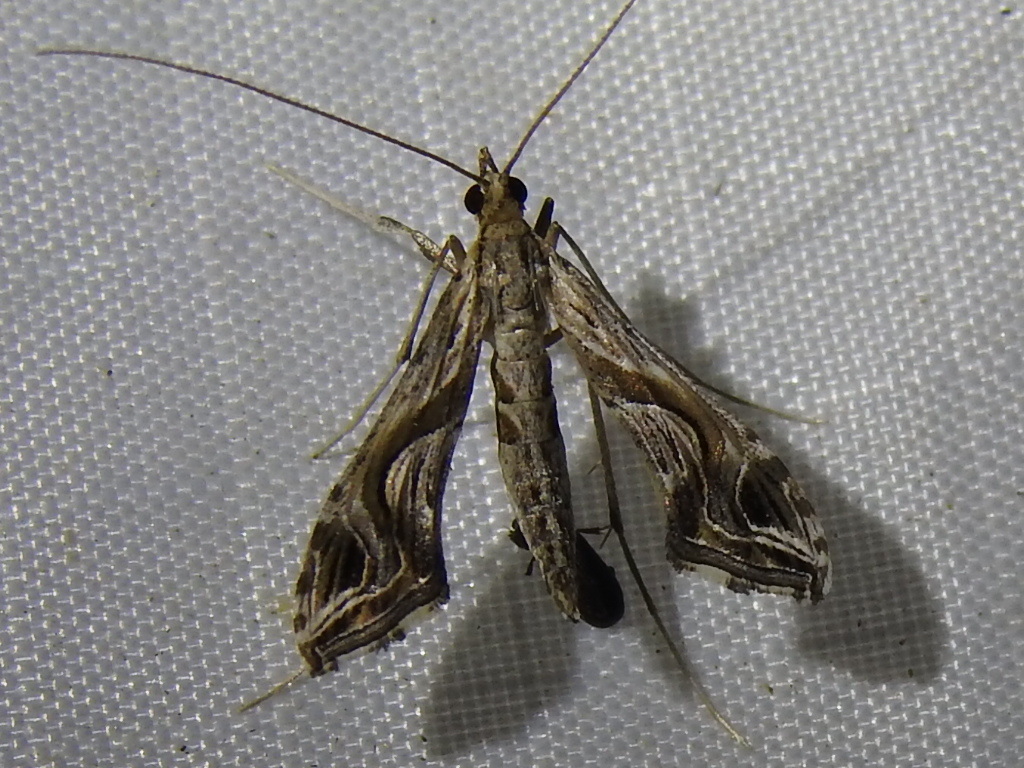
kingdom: Animalia
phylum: Arthropoda
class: Insecta
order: Lepidoptera
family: Crambidae
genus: Lineodes
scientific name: Lineodes integra
